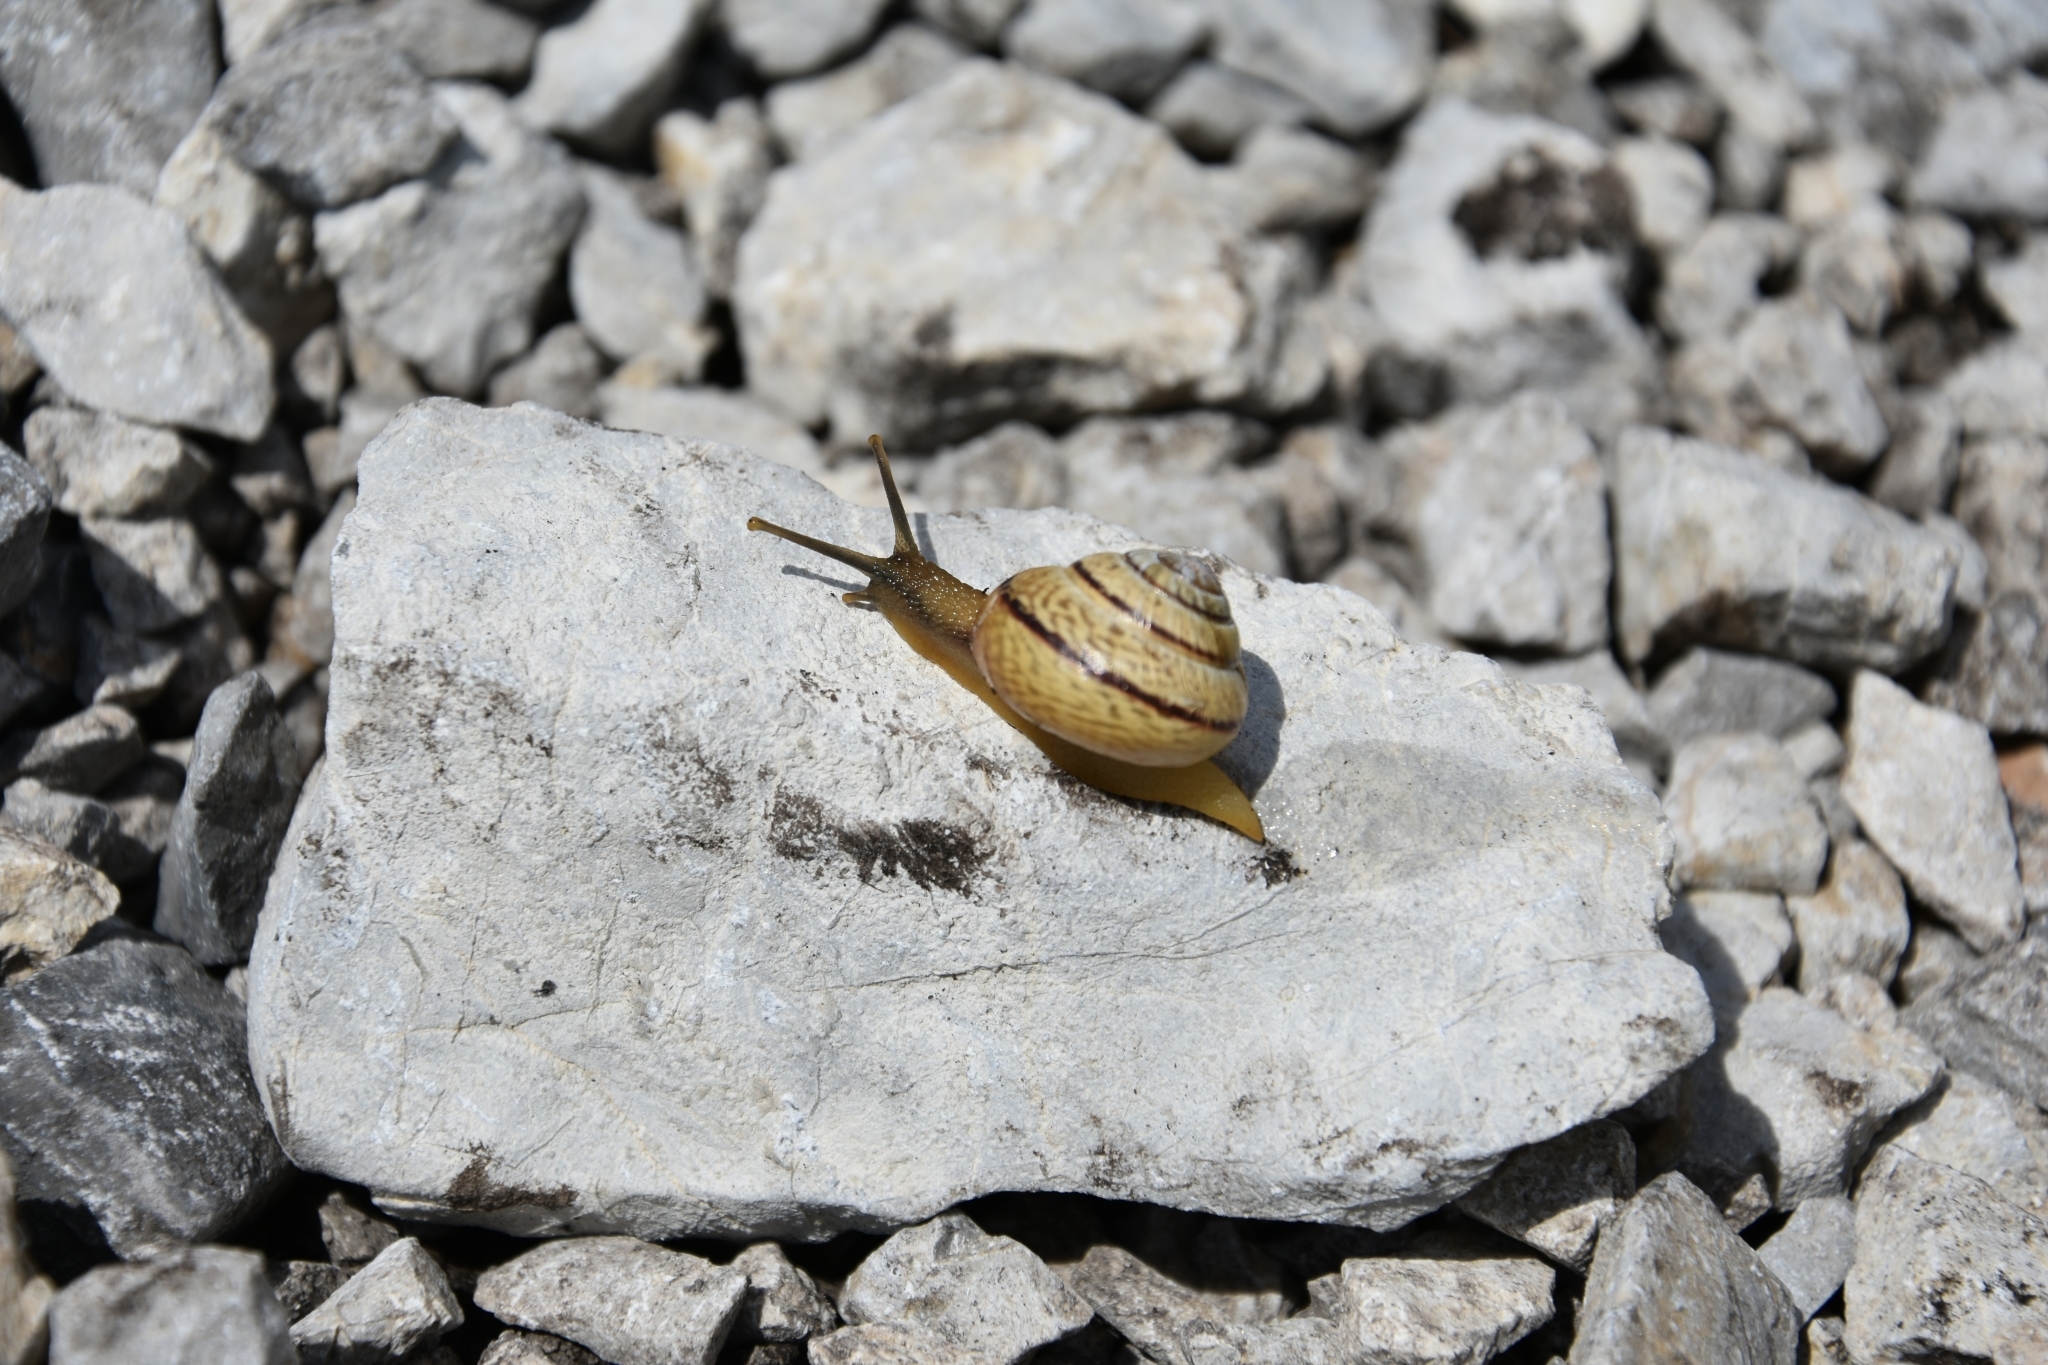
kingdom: Animalia
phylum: Mollusca
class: Gastropoda
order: Stylommatophora
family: Helicidae
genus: Arianta
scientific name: Arianta arbustorum
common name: Copse snail
